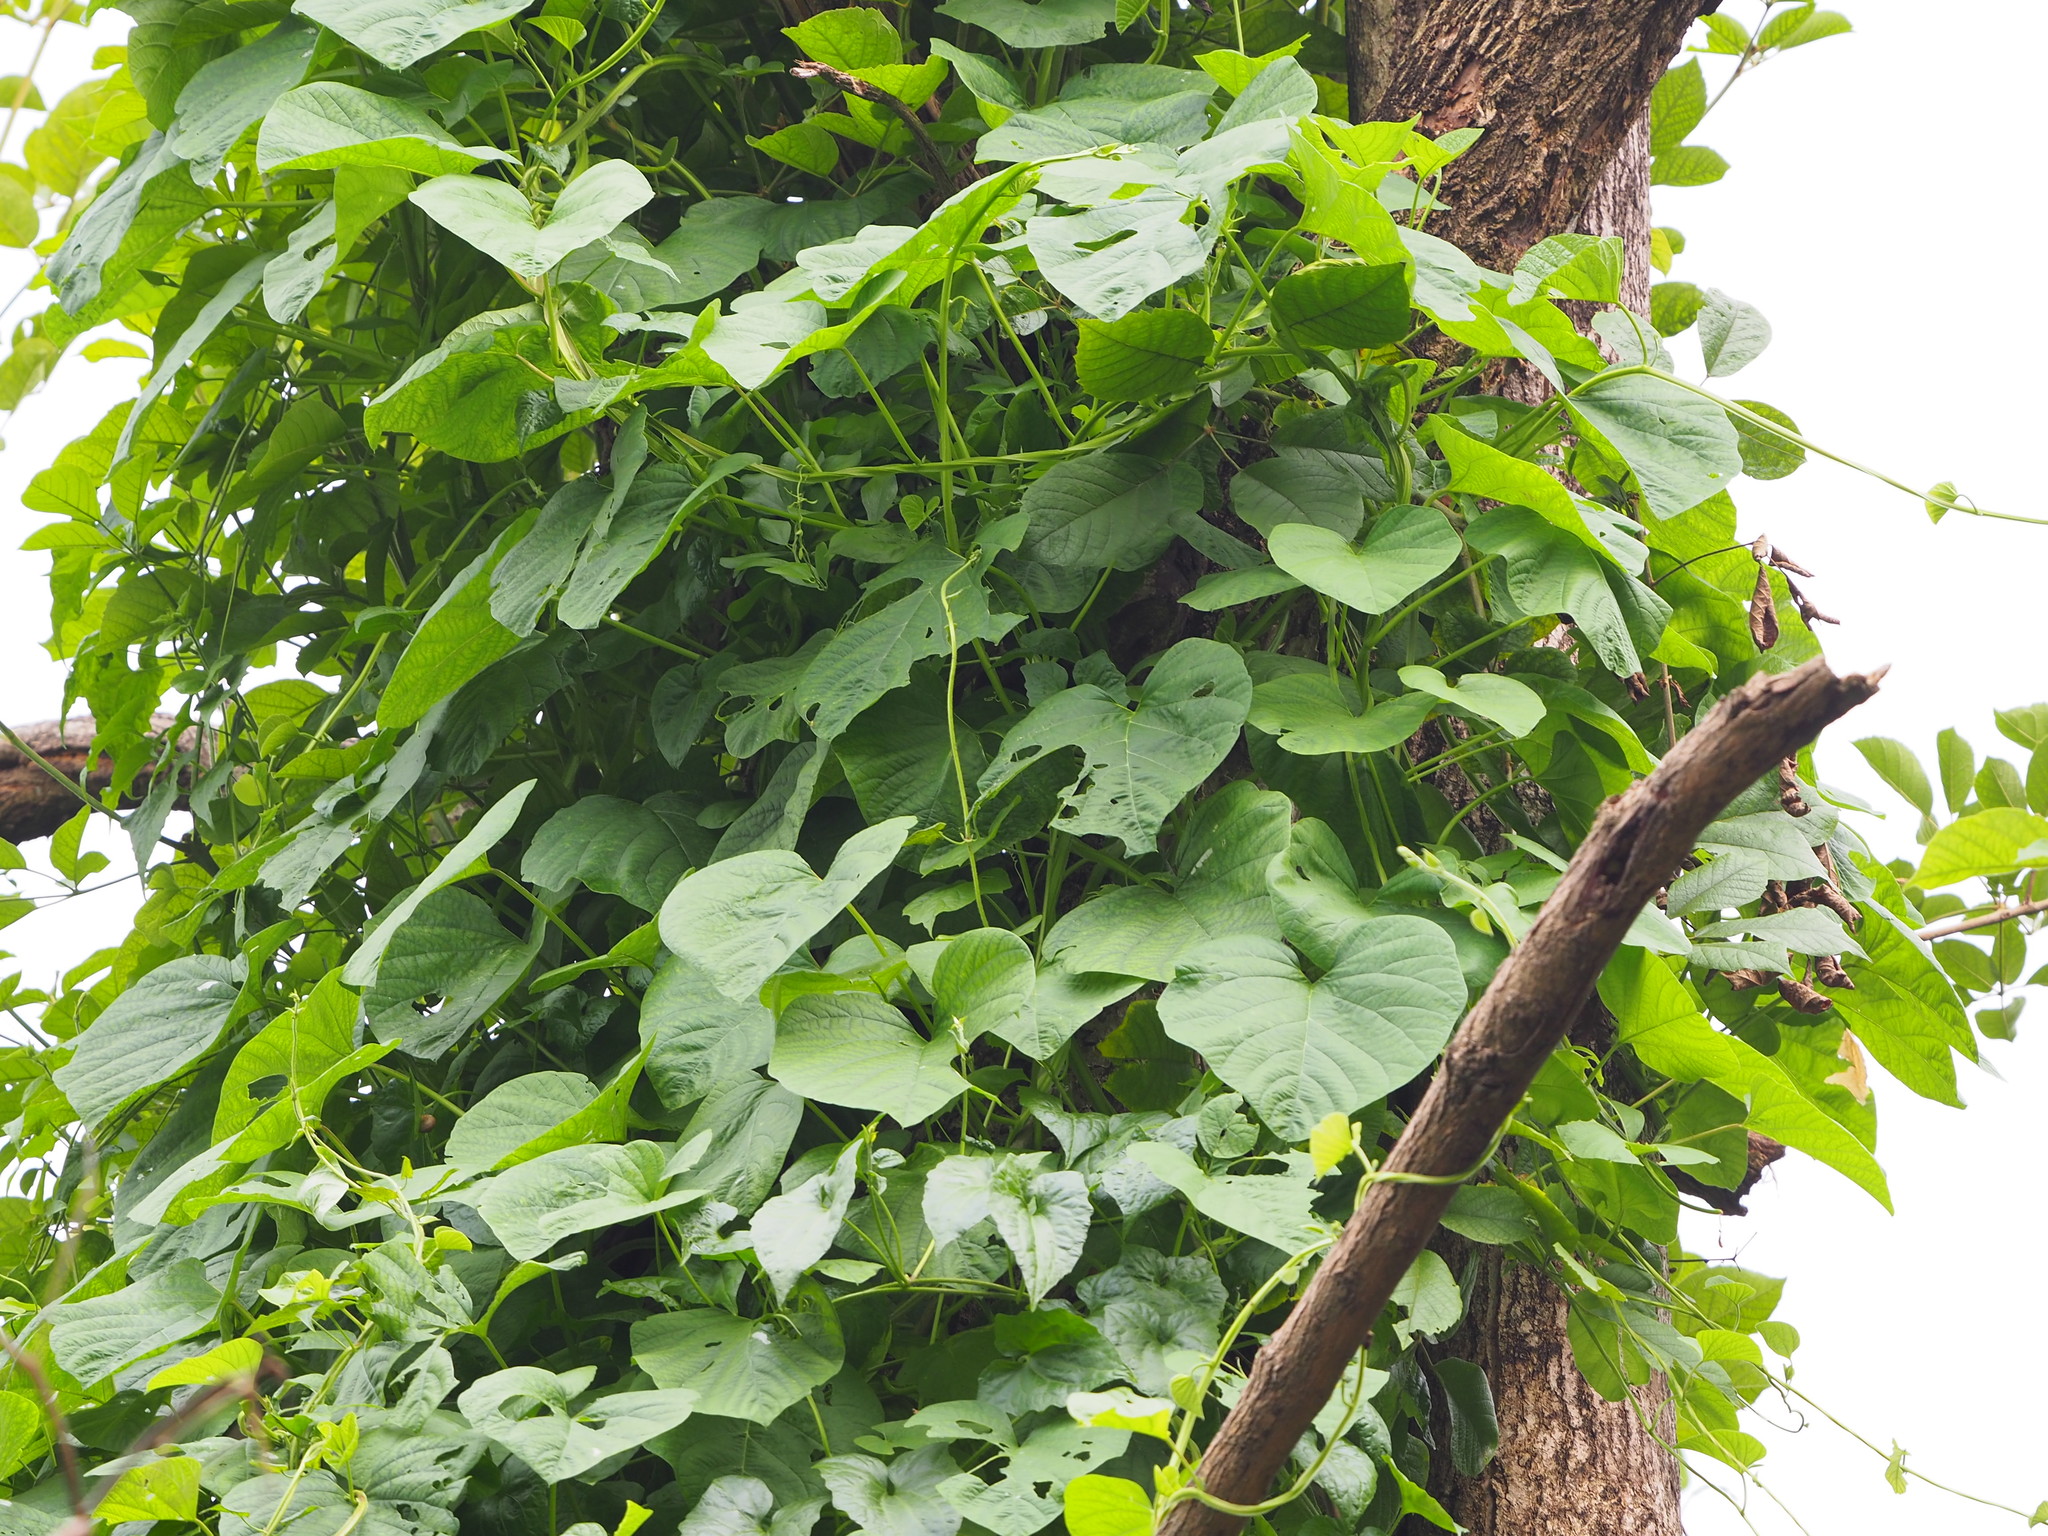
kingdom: Plantae
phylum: Tracheophyta
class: Magnoliopsida
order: Solanales
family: Convolvulaceae
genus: Operculina
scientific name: Operculina turpethum
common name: Transparent wood-rose
